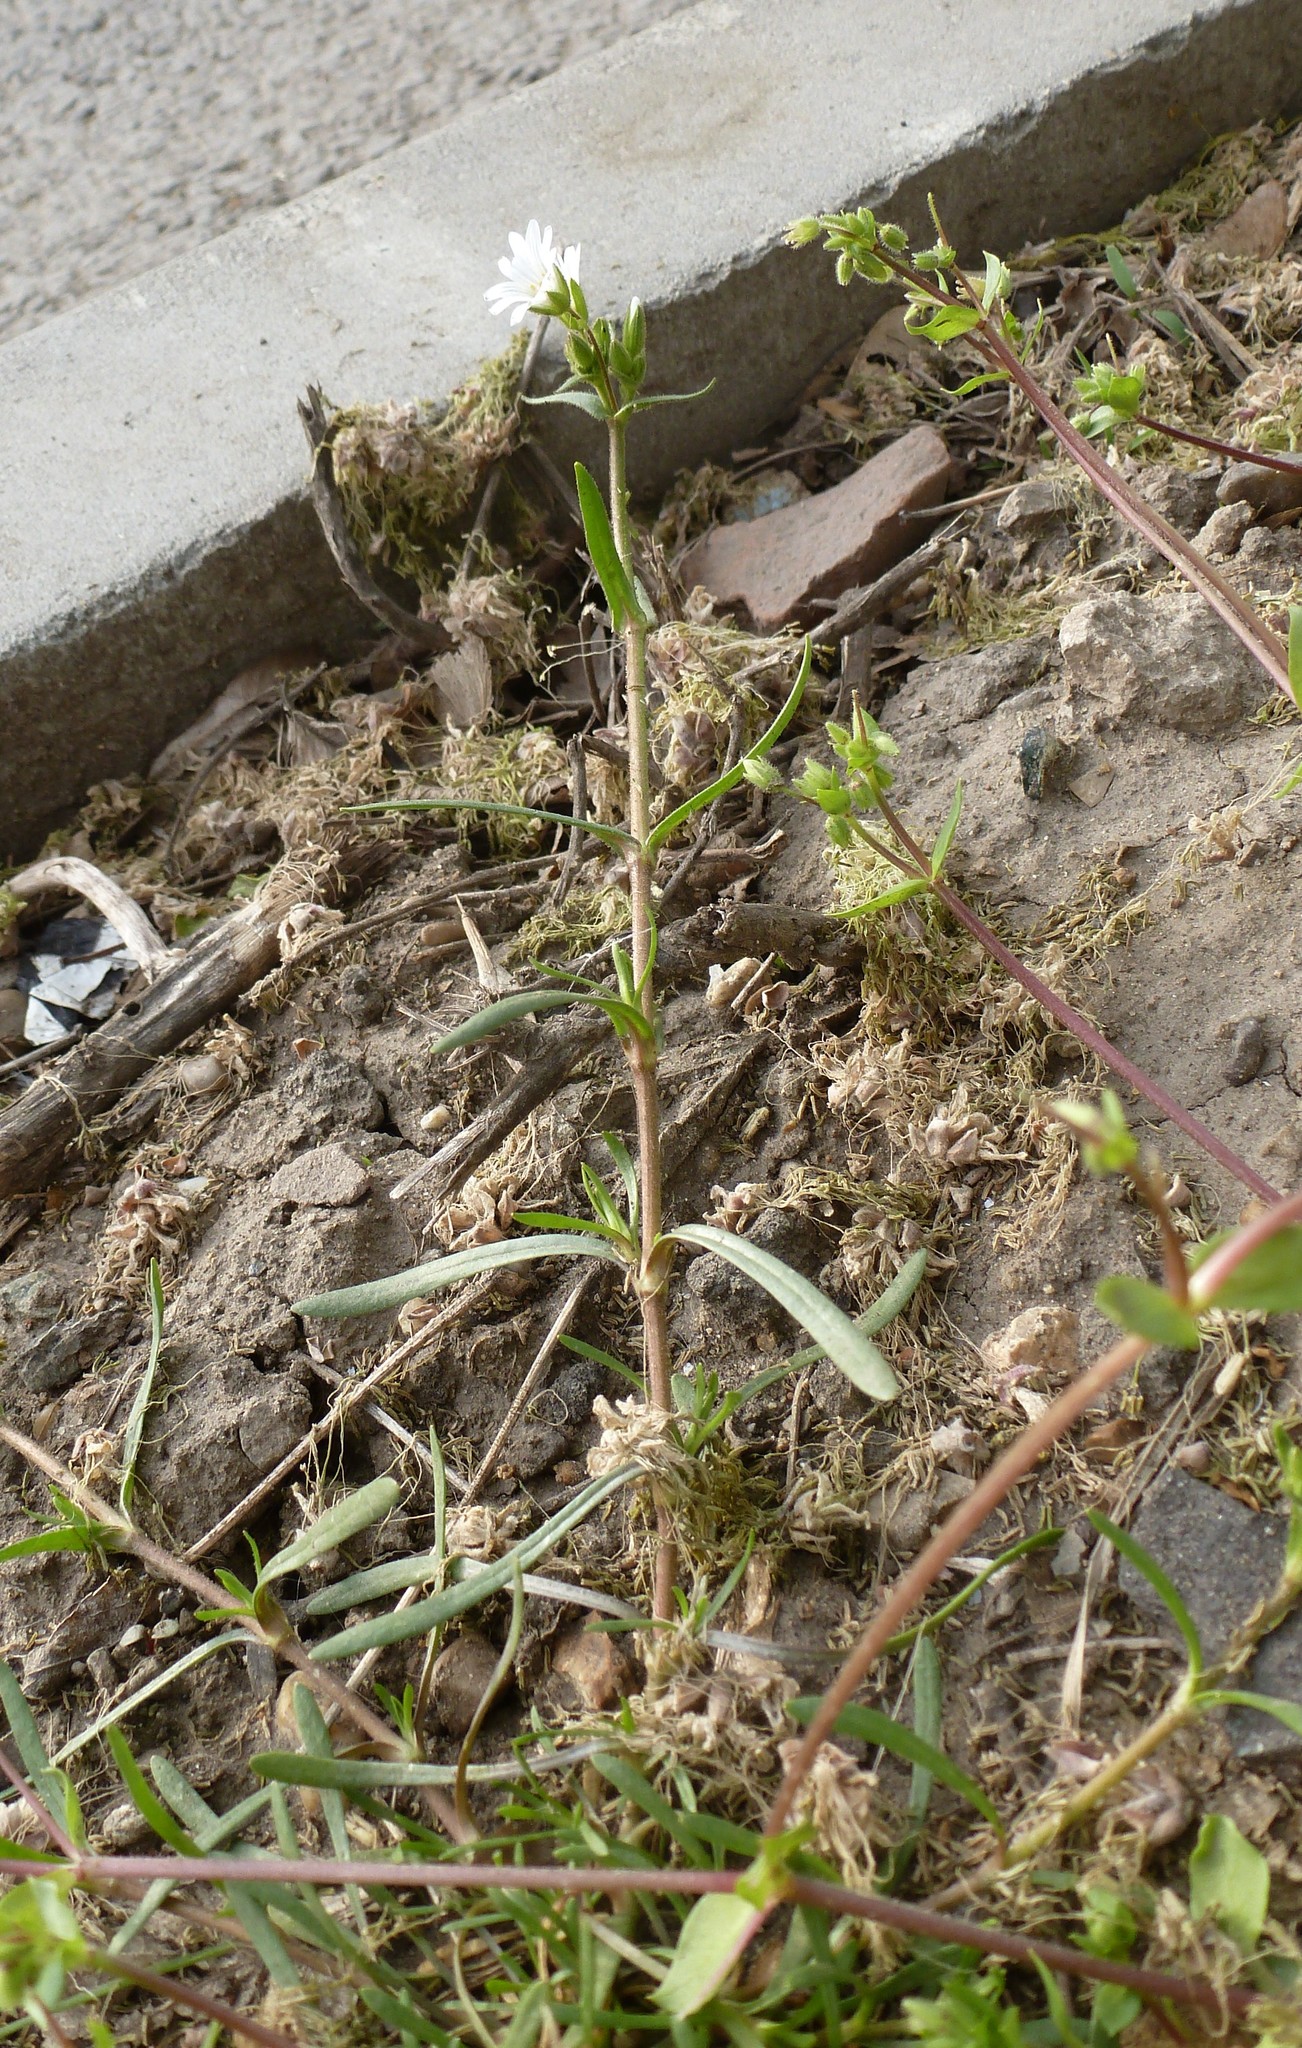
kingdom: Plantae
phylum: Tracheophyta
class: Magnoliopsida
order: Caryophyllales
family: Caryophyllaceae
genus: Dichodon
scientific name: Dichodon viscidum
